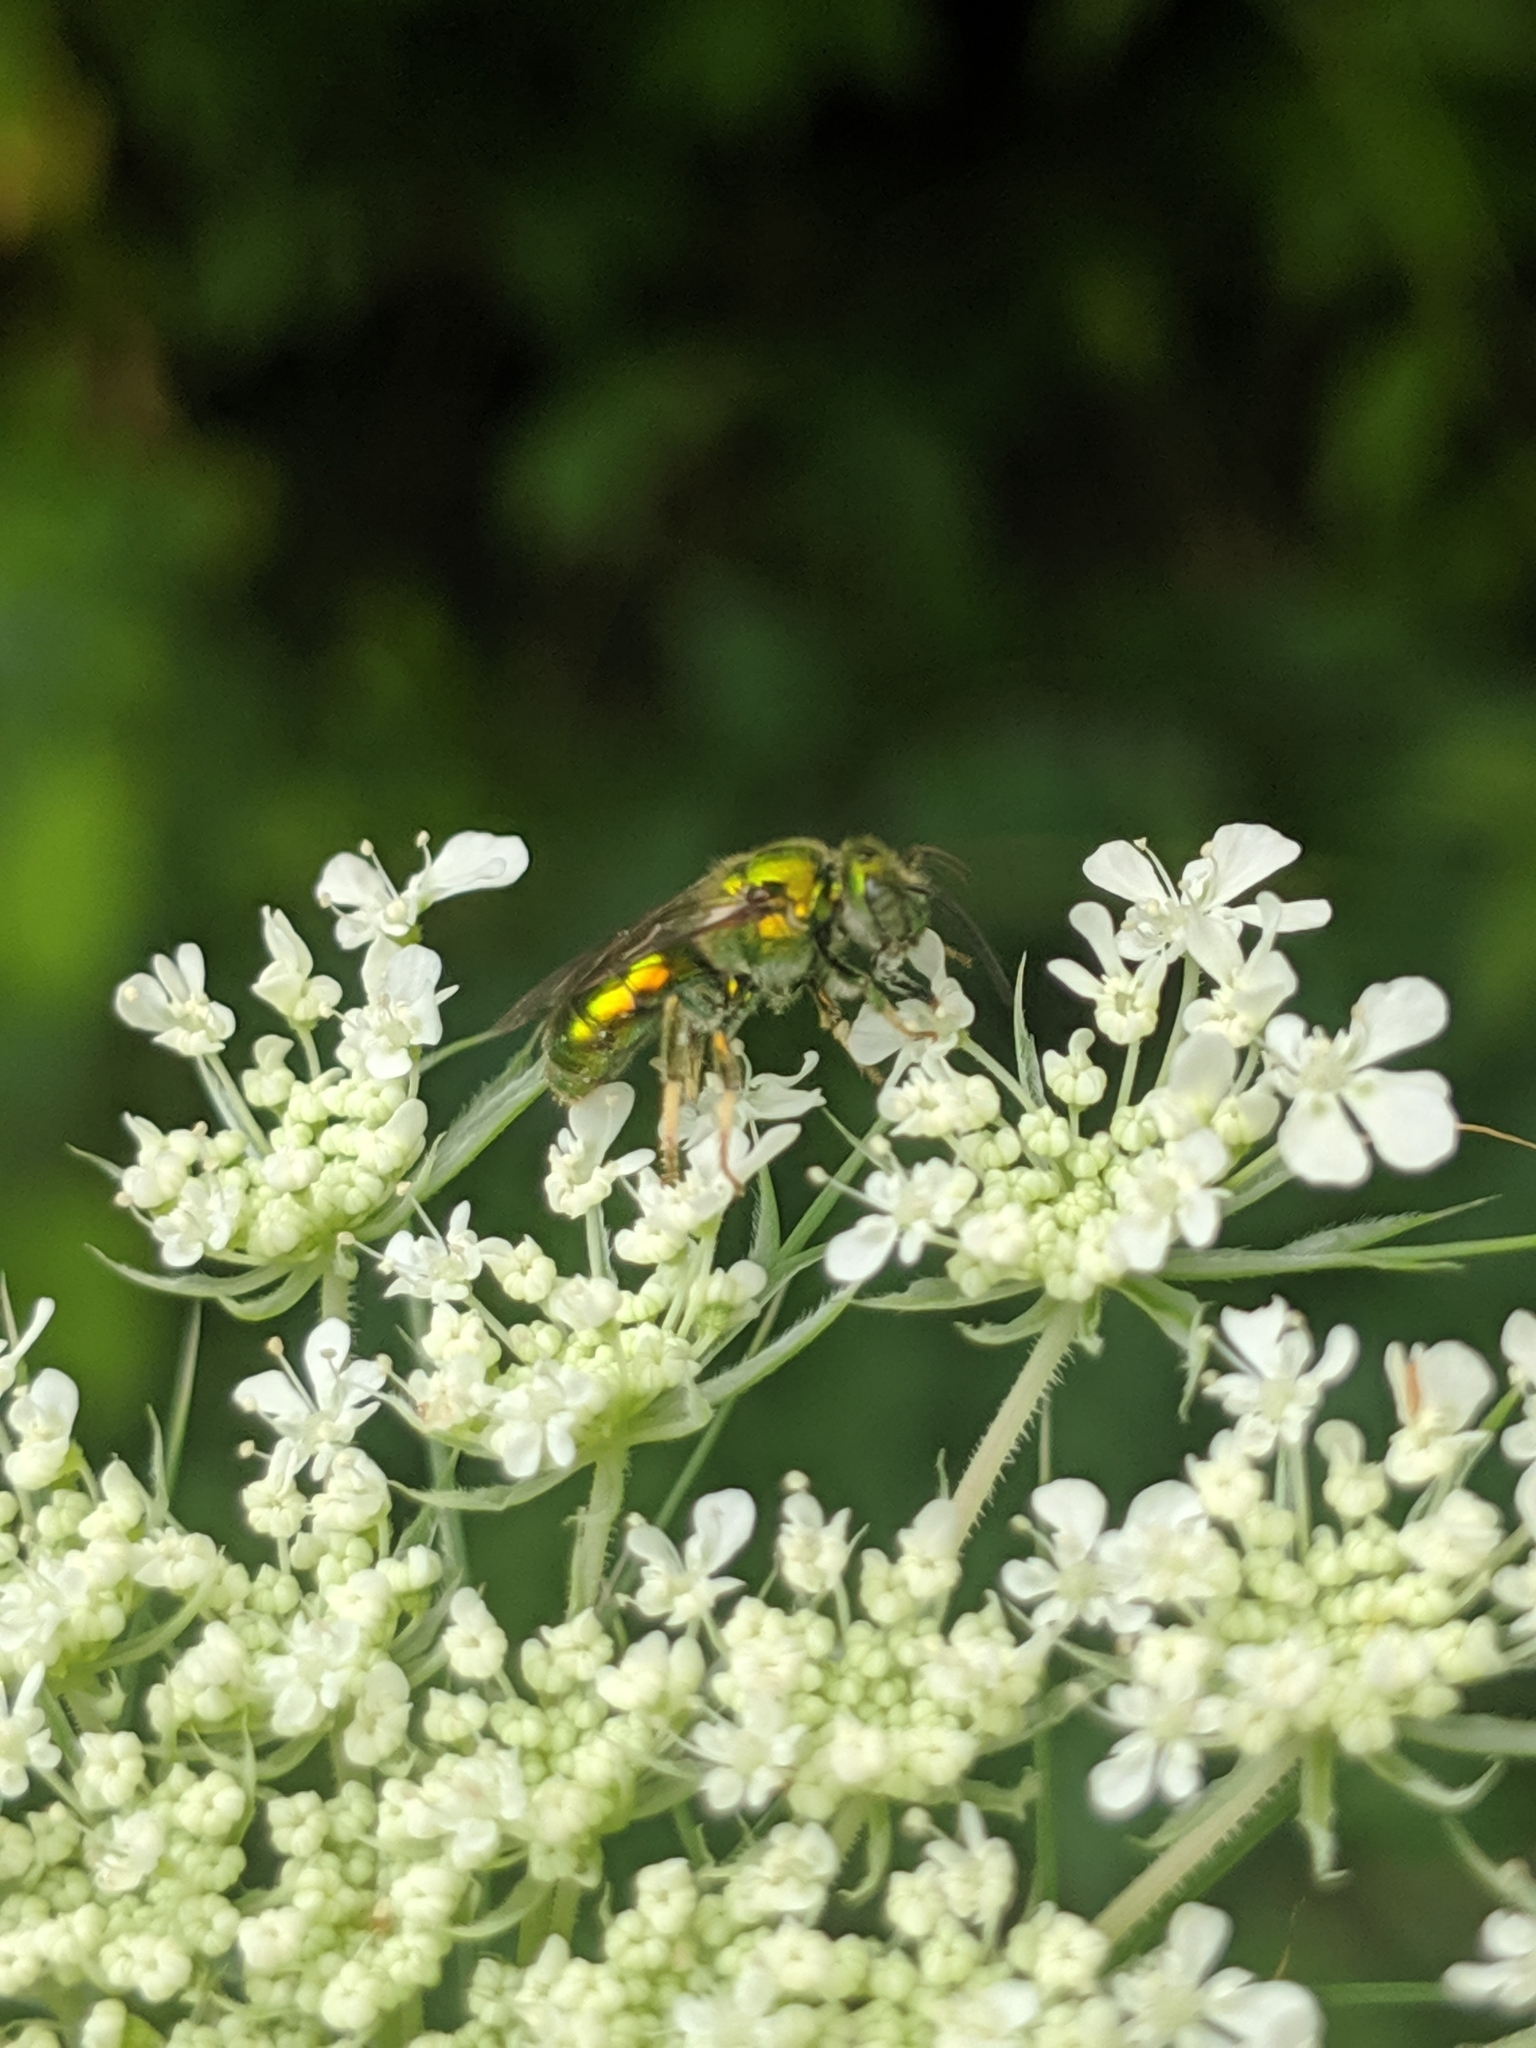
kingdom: Animalia
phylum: Arthropoda
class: Insecta
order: Hymenoptera
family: Halictidae
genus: Augochlora
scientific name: Augochlora pura
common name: Pure green sweat bee
